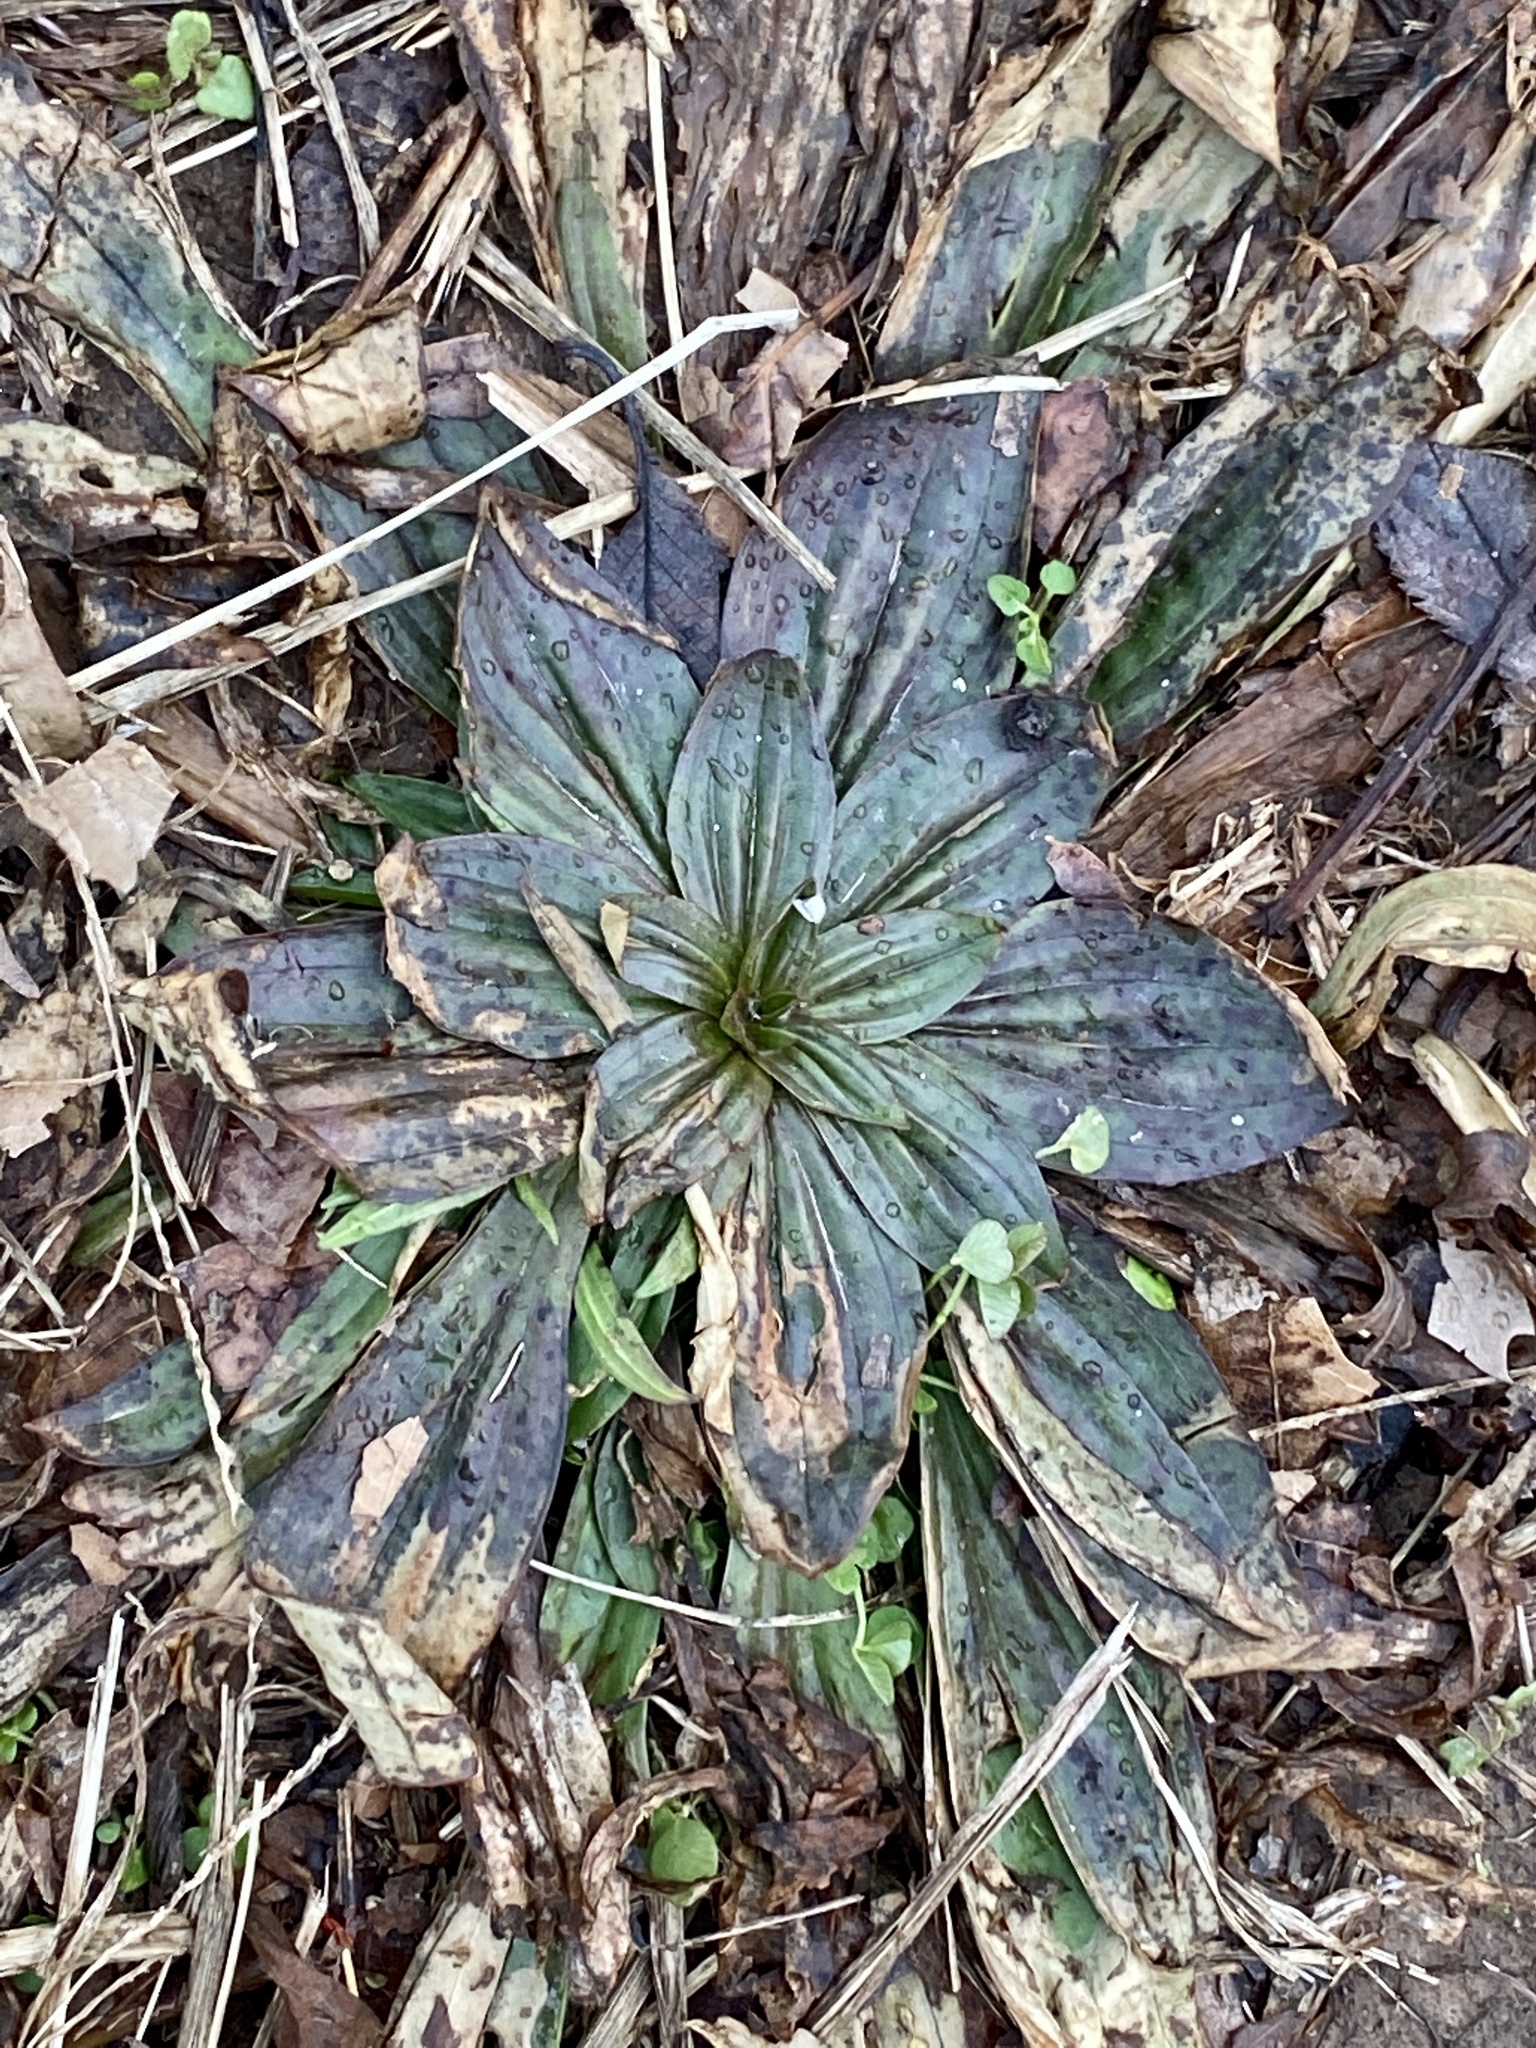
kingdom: Plantae
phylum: Tracheophyta
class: Magnoliopsida
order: Lamiales
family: Plantaginaceae
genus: Plantago
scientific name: Plantago lanceolata
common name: Ribwort plantain
